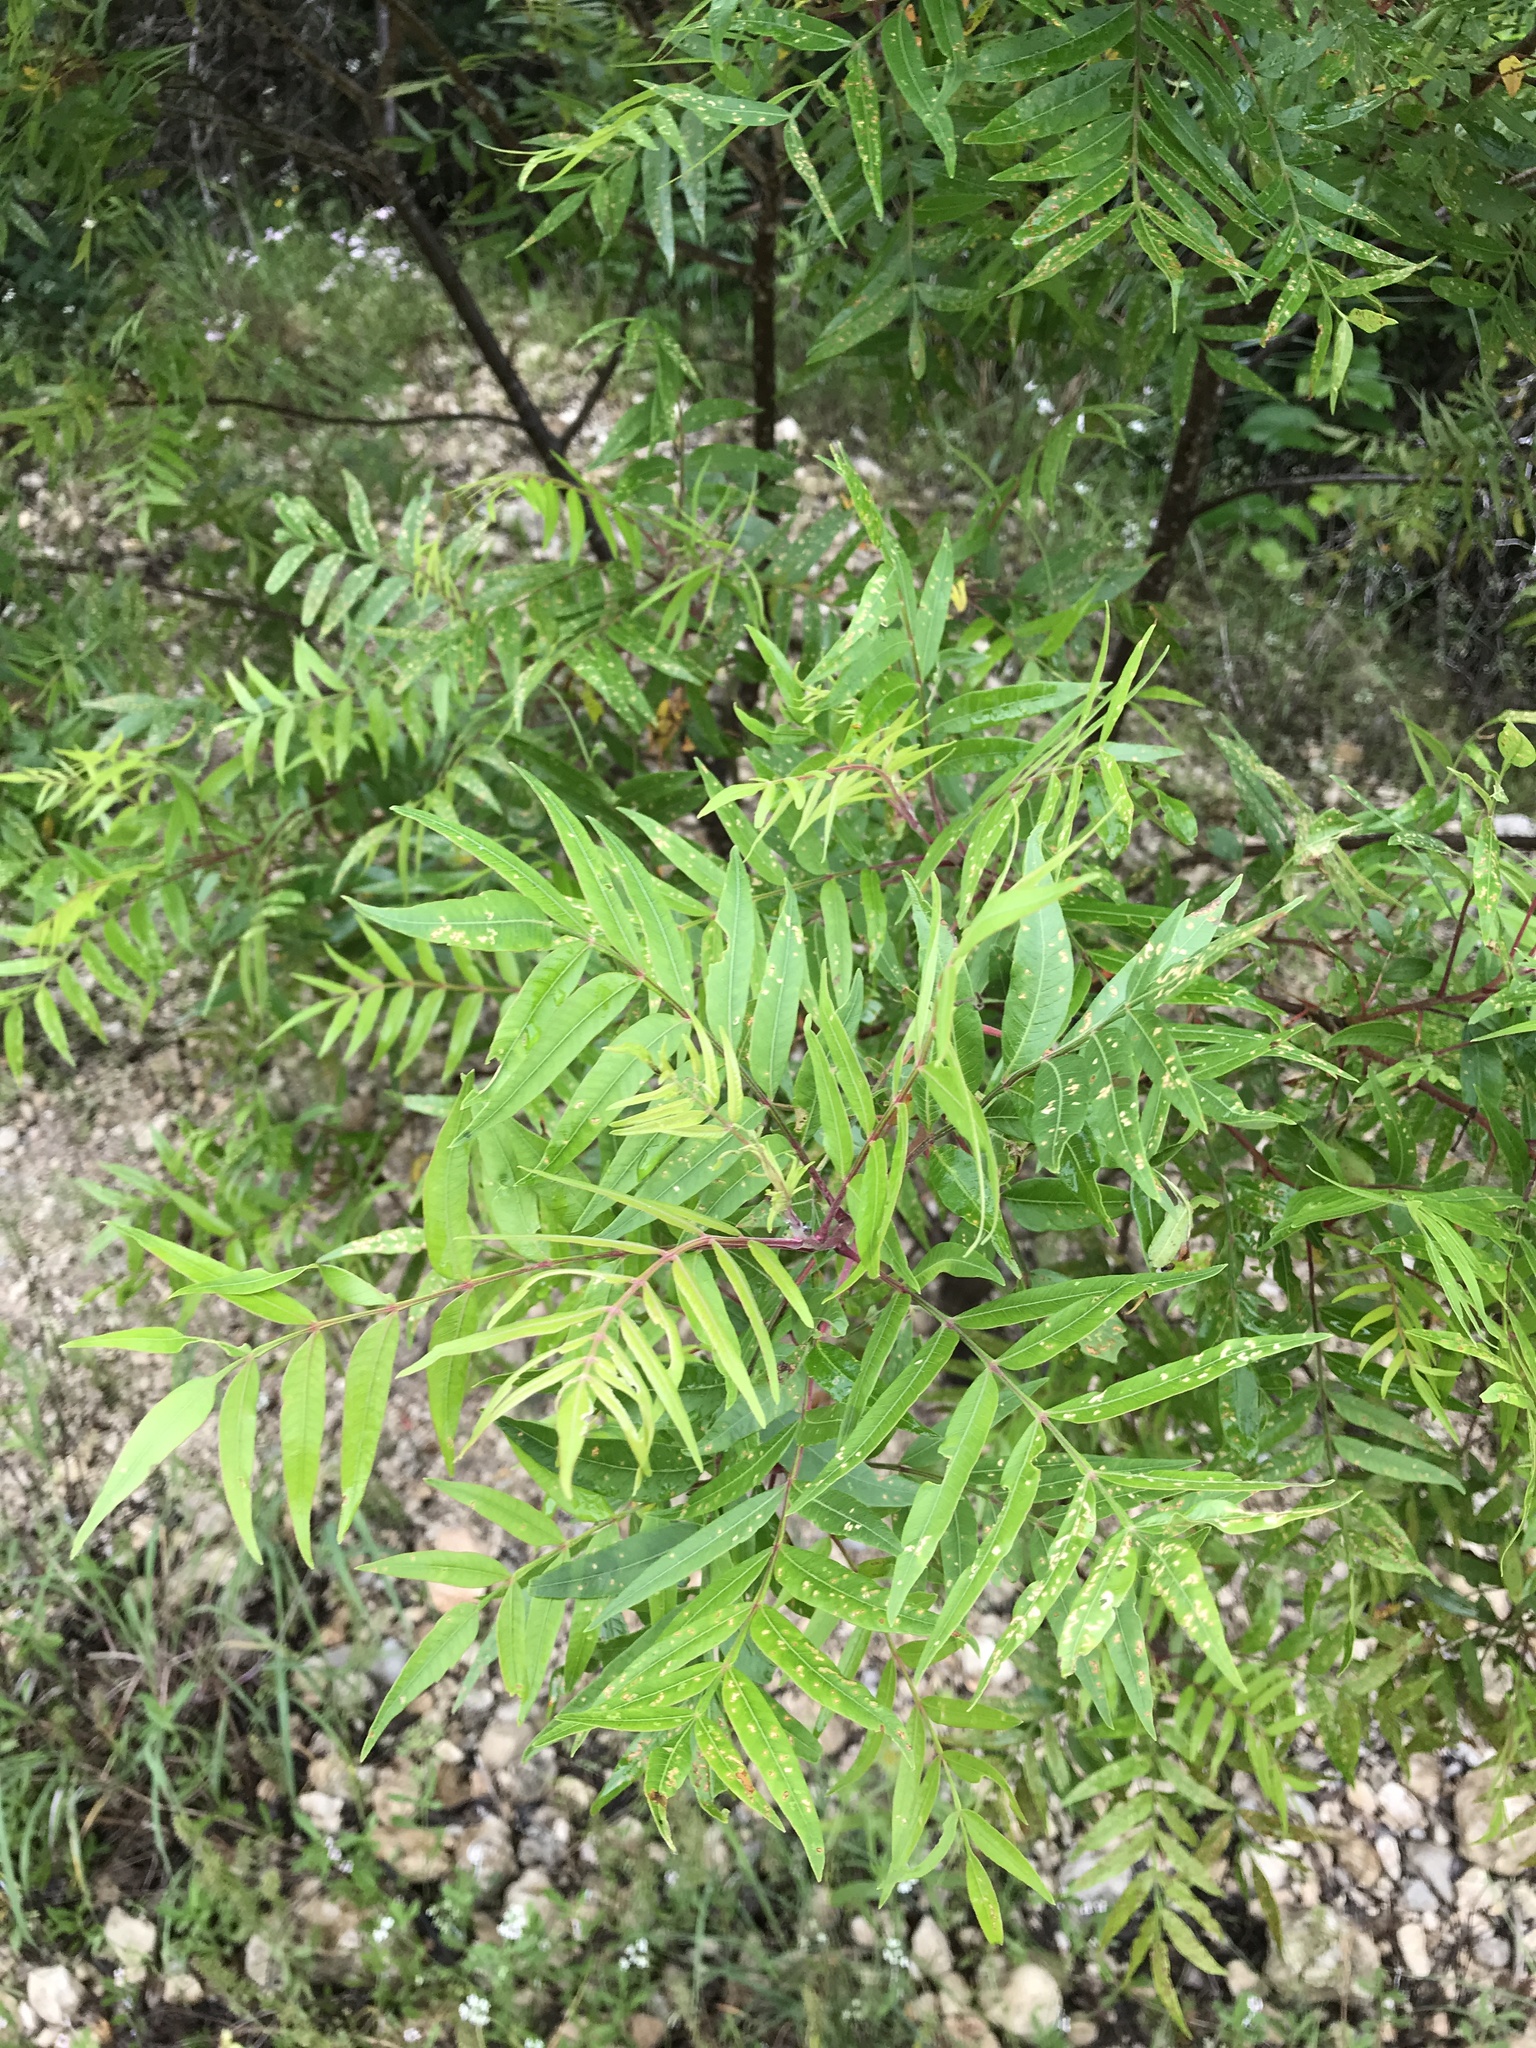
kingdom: Plantae
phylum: Tracheophyta
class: Magnoliopsida
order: Sapindales
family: Anacardiaceae
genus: Rhus
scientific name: Rhus lanceolata
